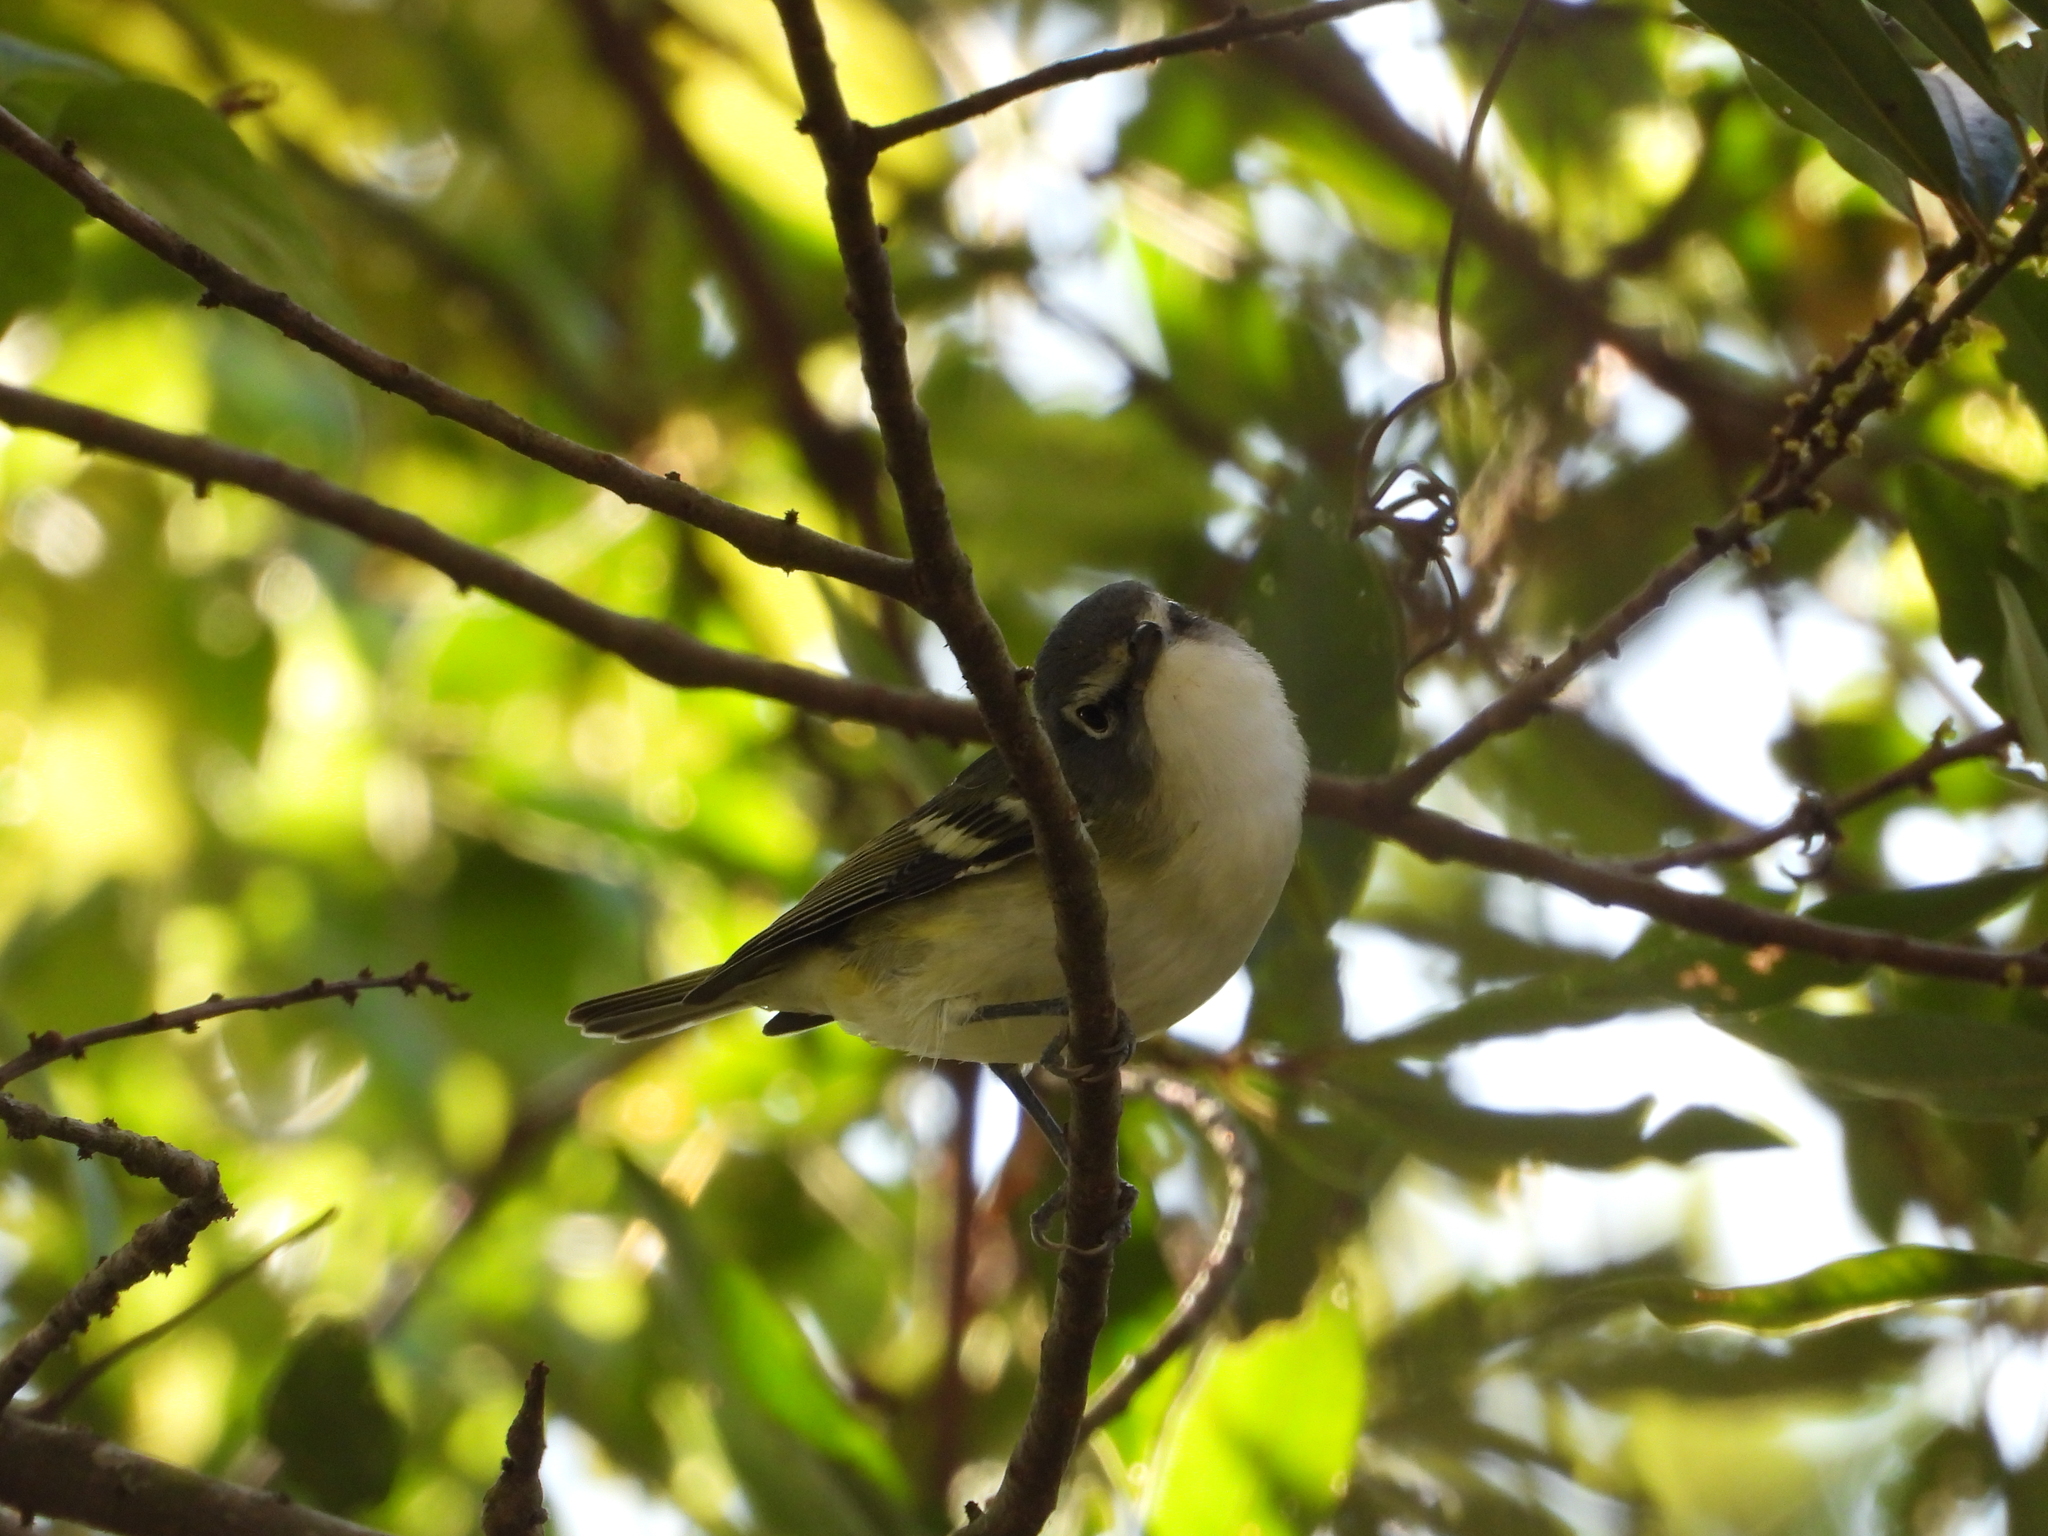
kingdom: Animalia
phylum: Chordata
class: Aves
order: Passeriformes
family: Vireonidae
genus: Vireo
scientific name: Vireo solitarius
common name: Blue-headed vireo
